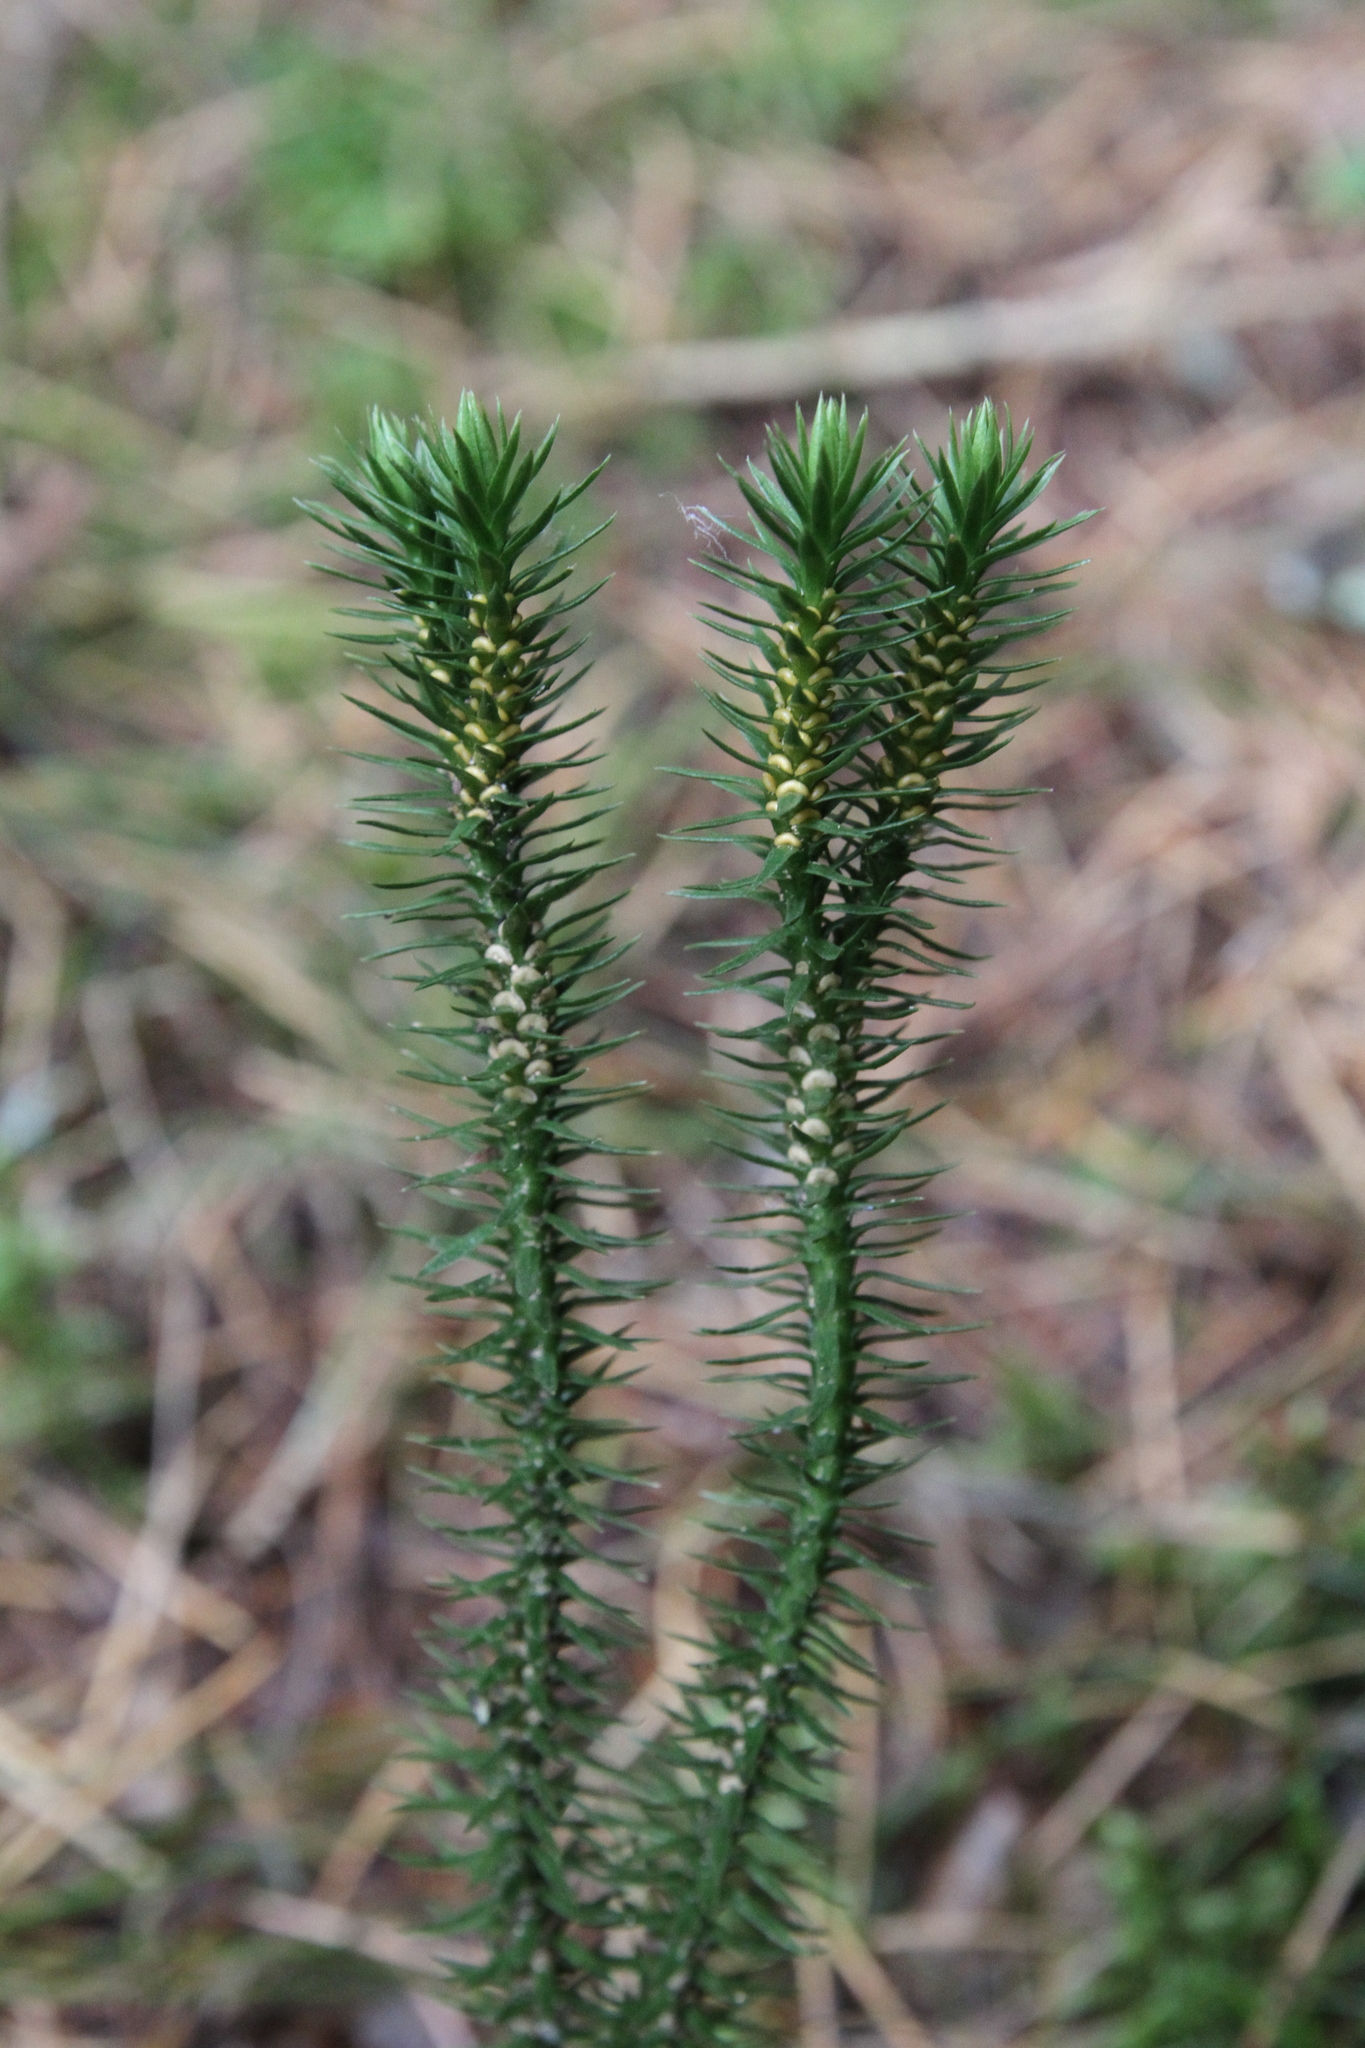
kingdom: Plantae
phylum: Tracheophyta
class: Lycopodiopsida
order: Lycopodiales
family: Lycopodiaceae
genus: Huperzia
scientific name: Huperzia selago
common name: Northern firmoss
